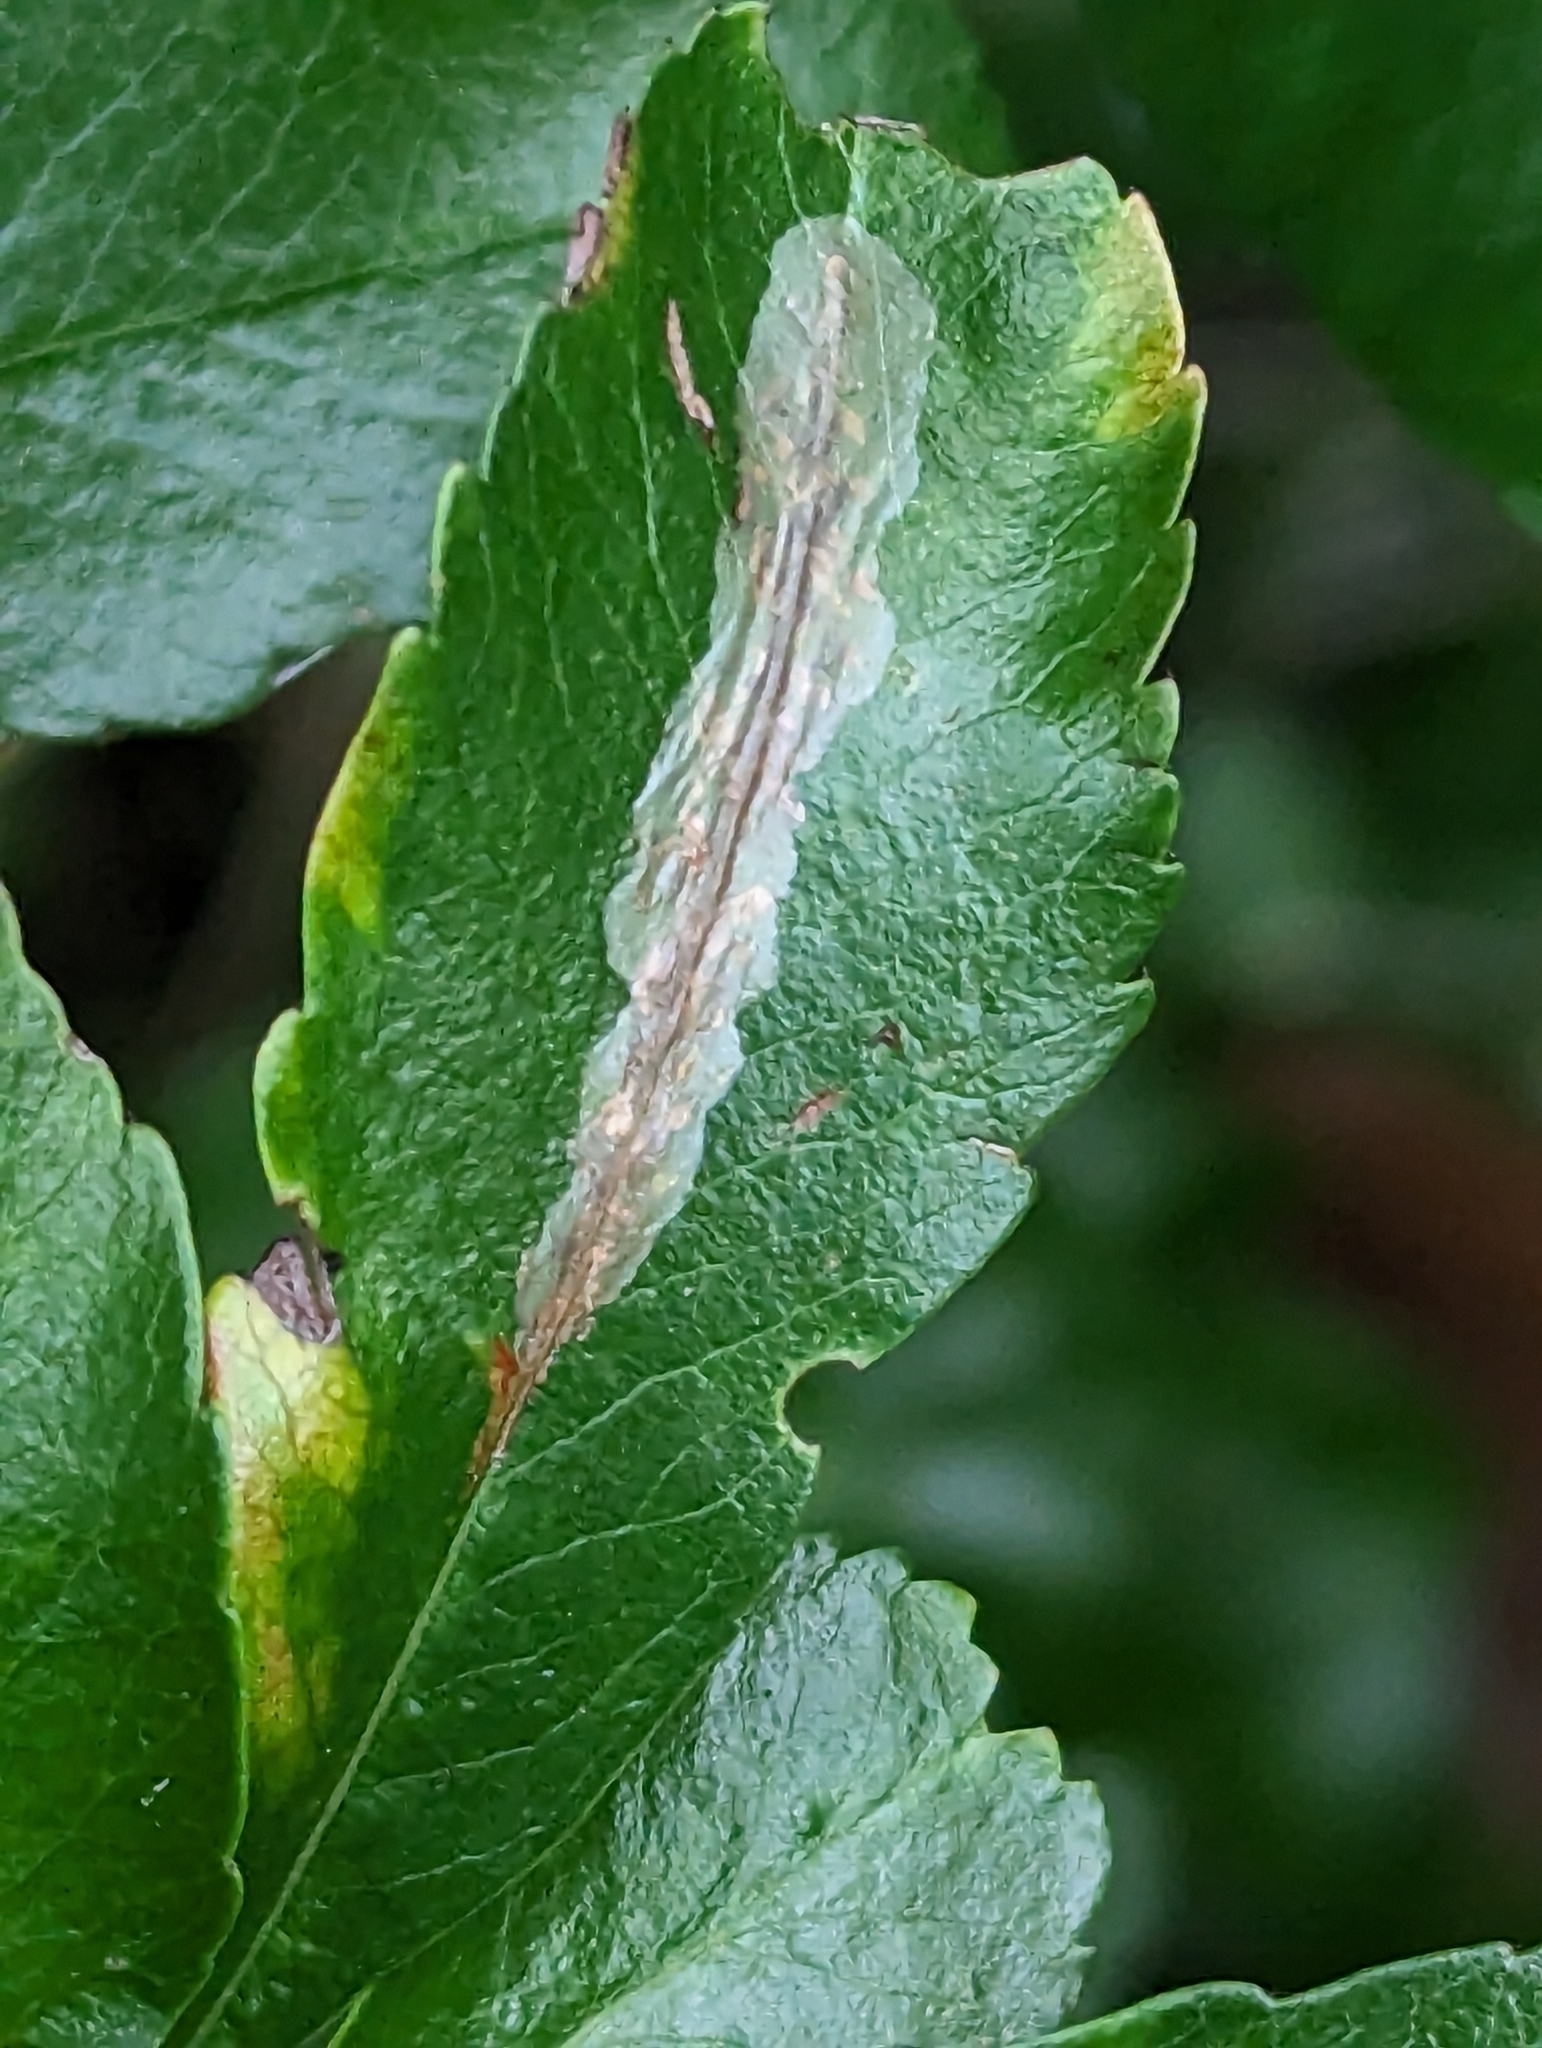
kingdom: Animalia
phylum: Arthropoda
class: Insecta
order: Lepidoptera
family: Gracillariidae
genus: Phyllonorycter
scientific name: Phyllonorycter leucographella
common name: Firethorn leaf-miner
